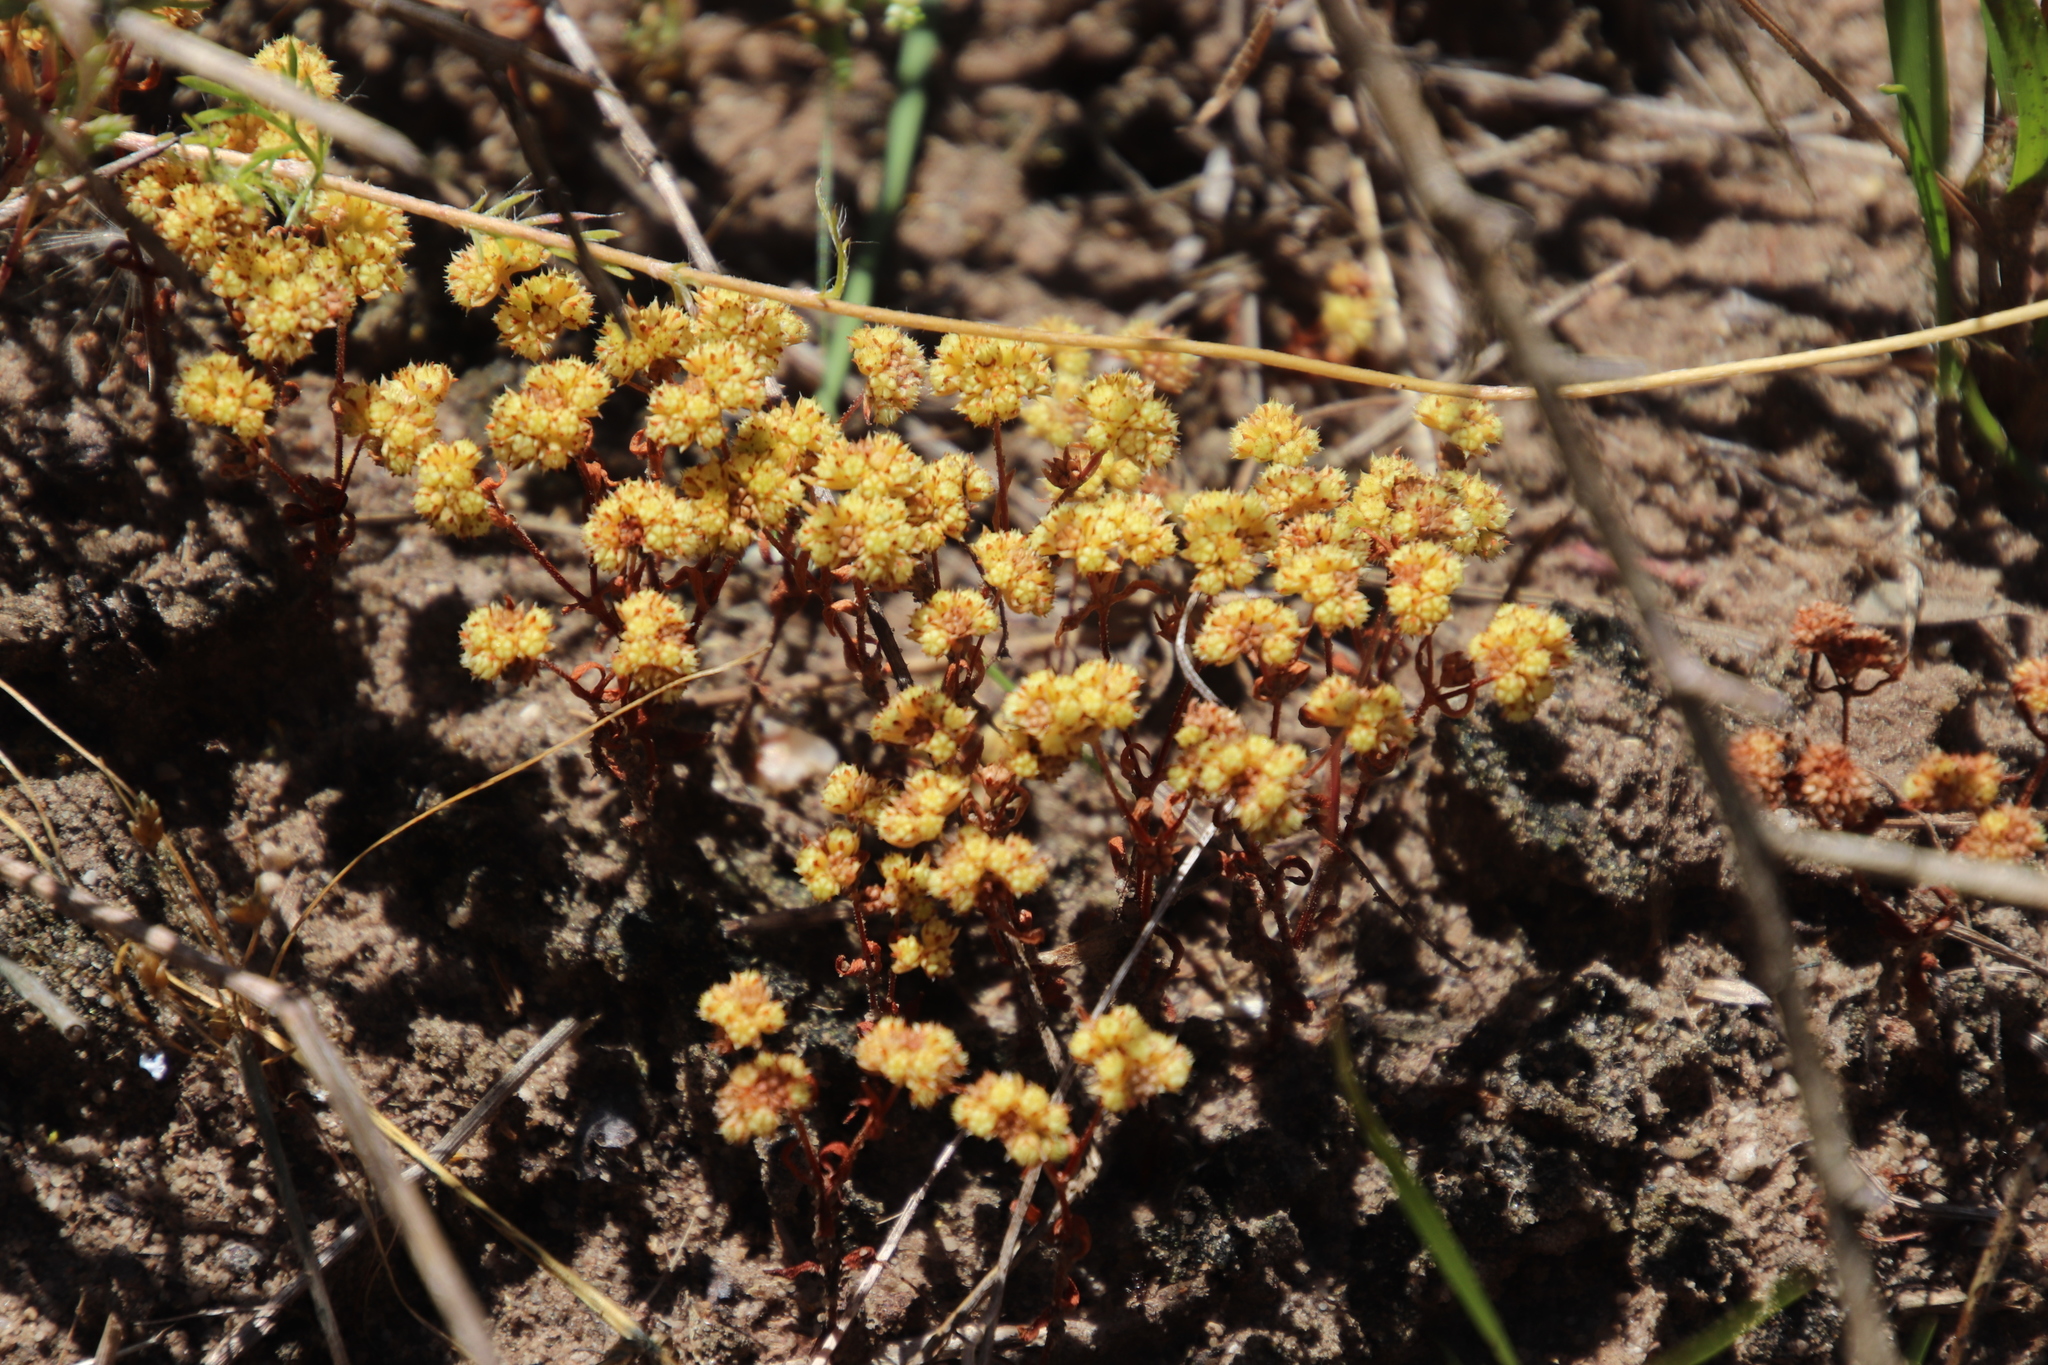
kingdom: Plantae
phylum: Tracheophyta
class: Magnoliopsida
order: Saxifragales
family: Crassulaceae
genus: Crassula
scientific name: Crassula glomerata
